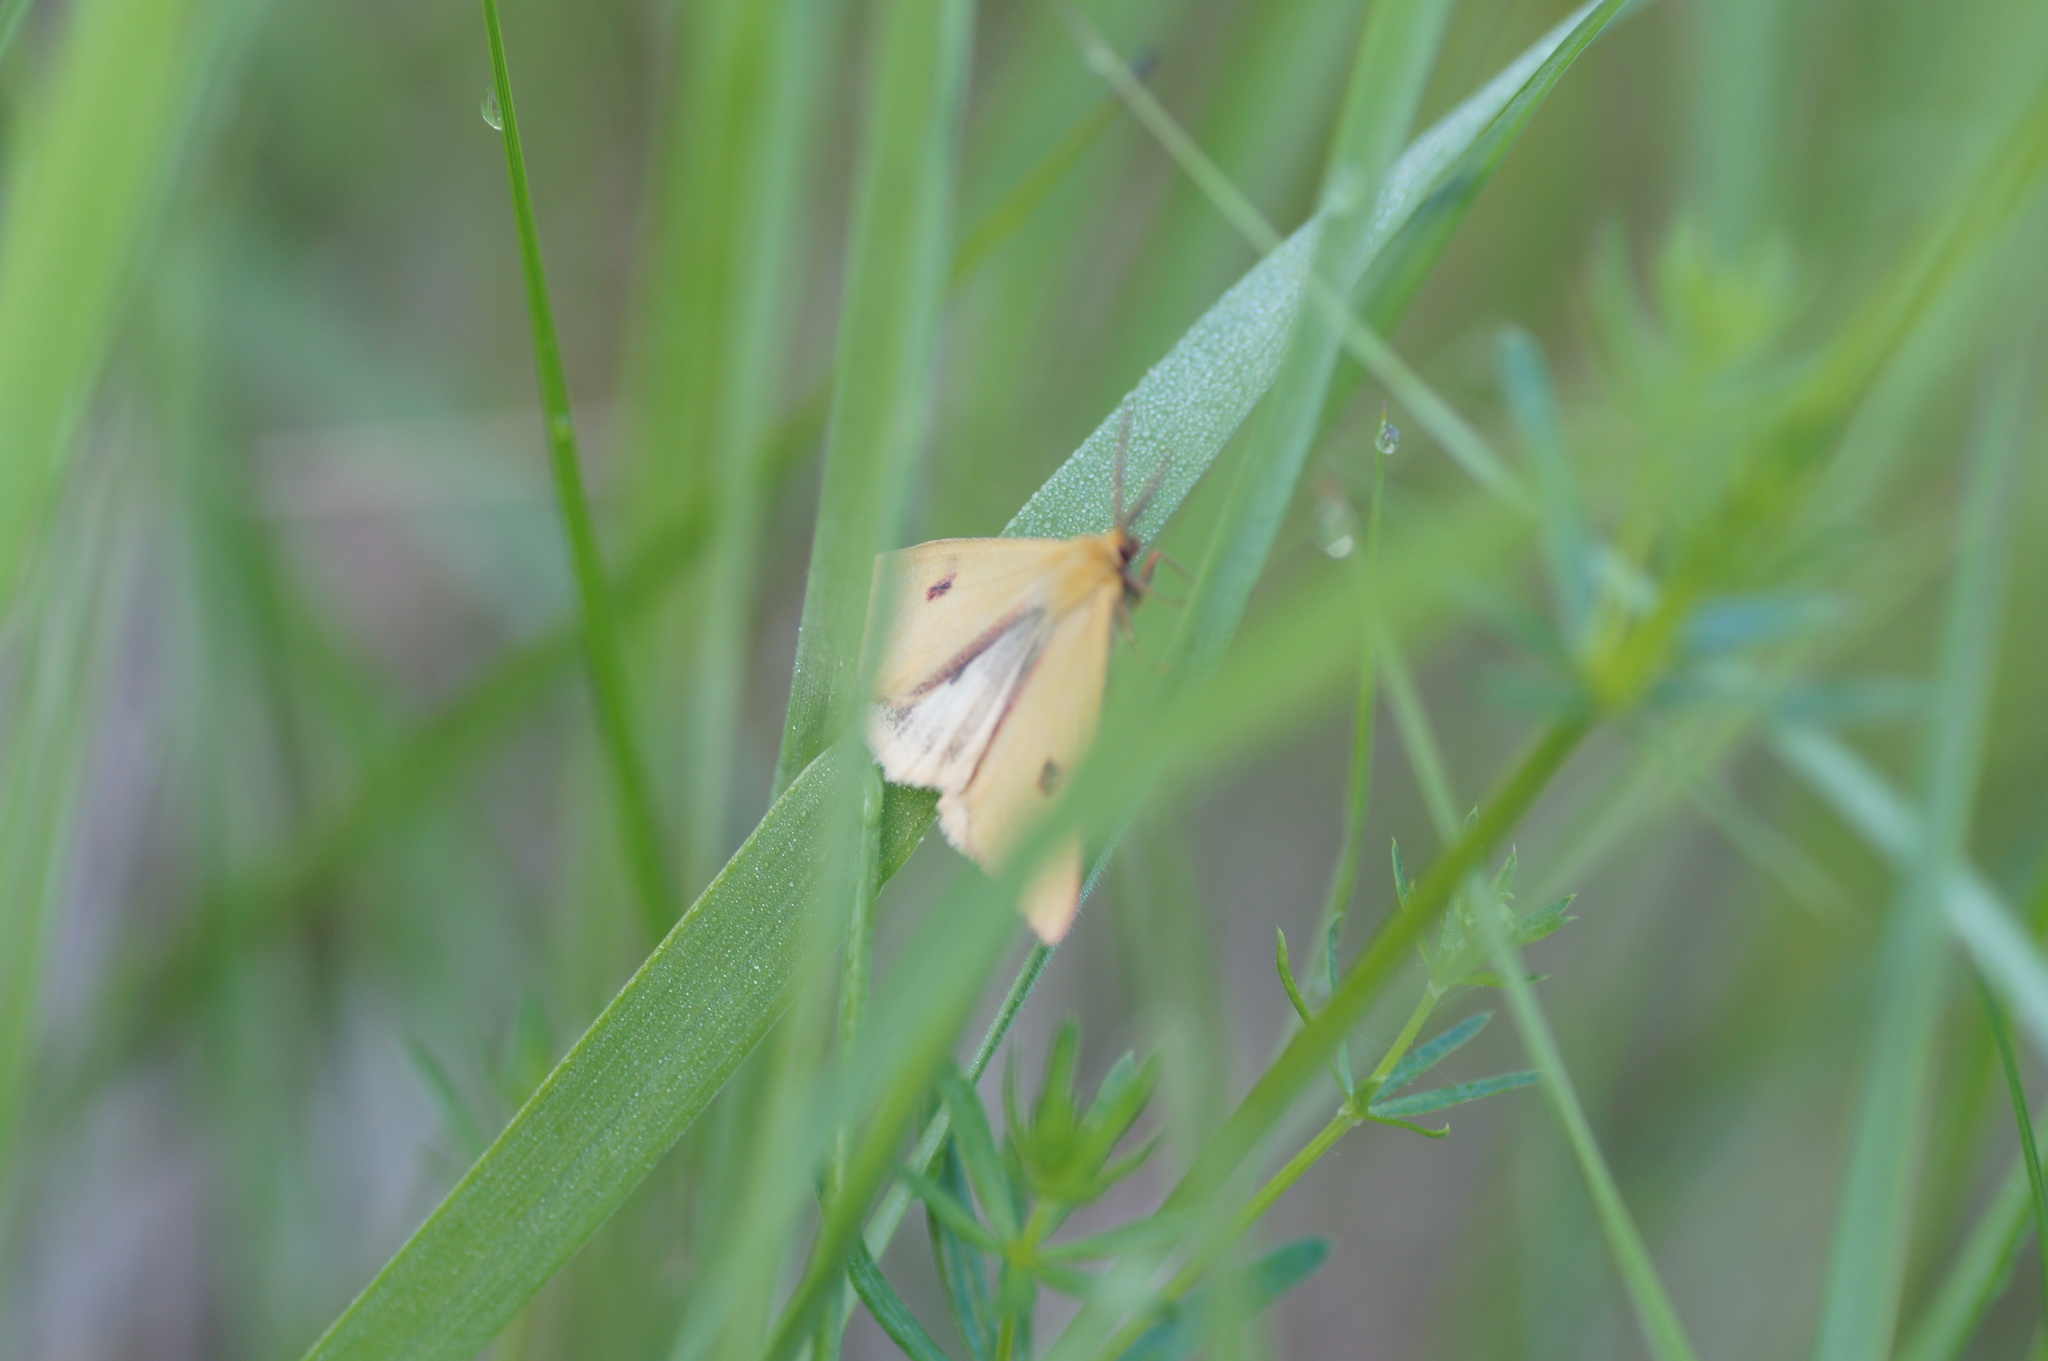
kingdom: Animalia
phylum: Arthropoda
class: Insecta
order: Lepidoptera
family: Erebidae
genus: Diacrisia
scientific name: Diacrisia sannio
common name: Clouded buff
